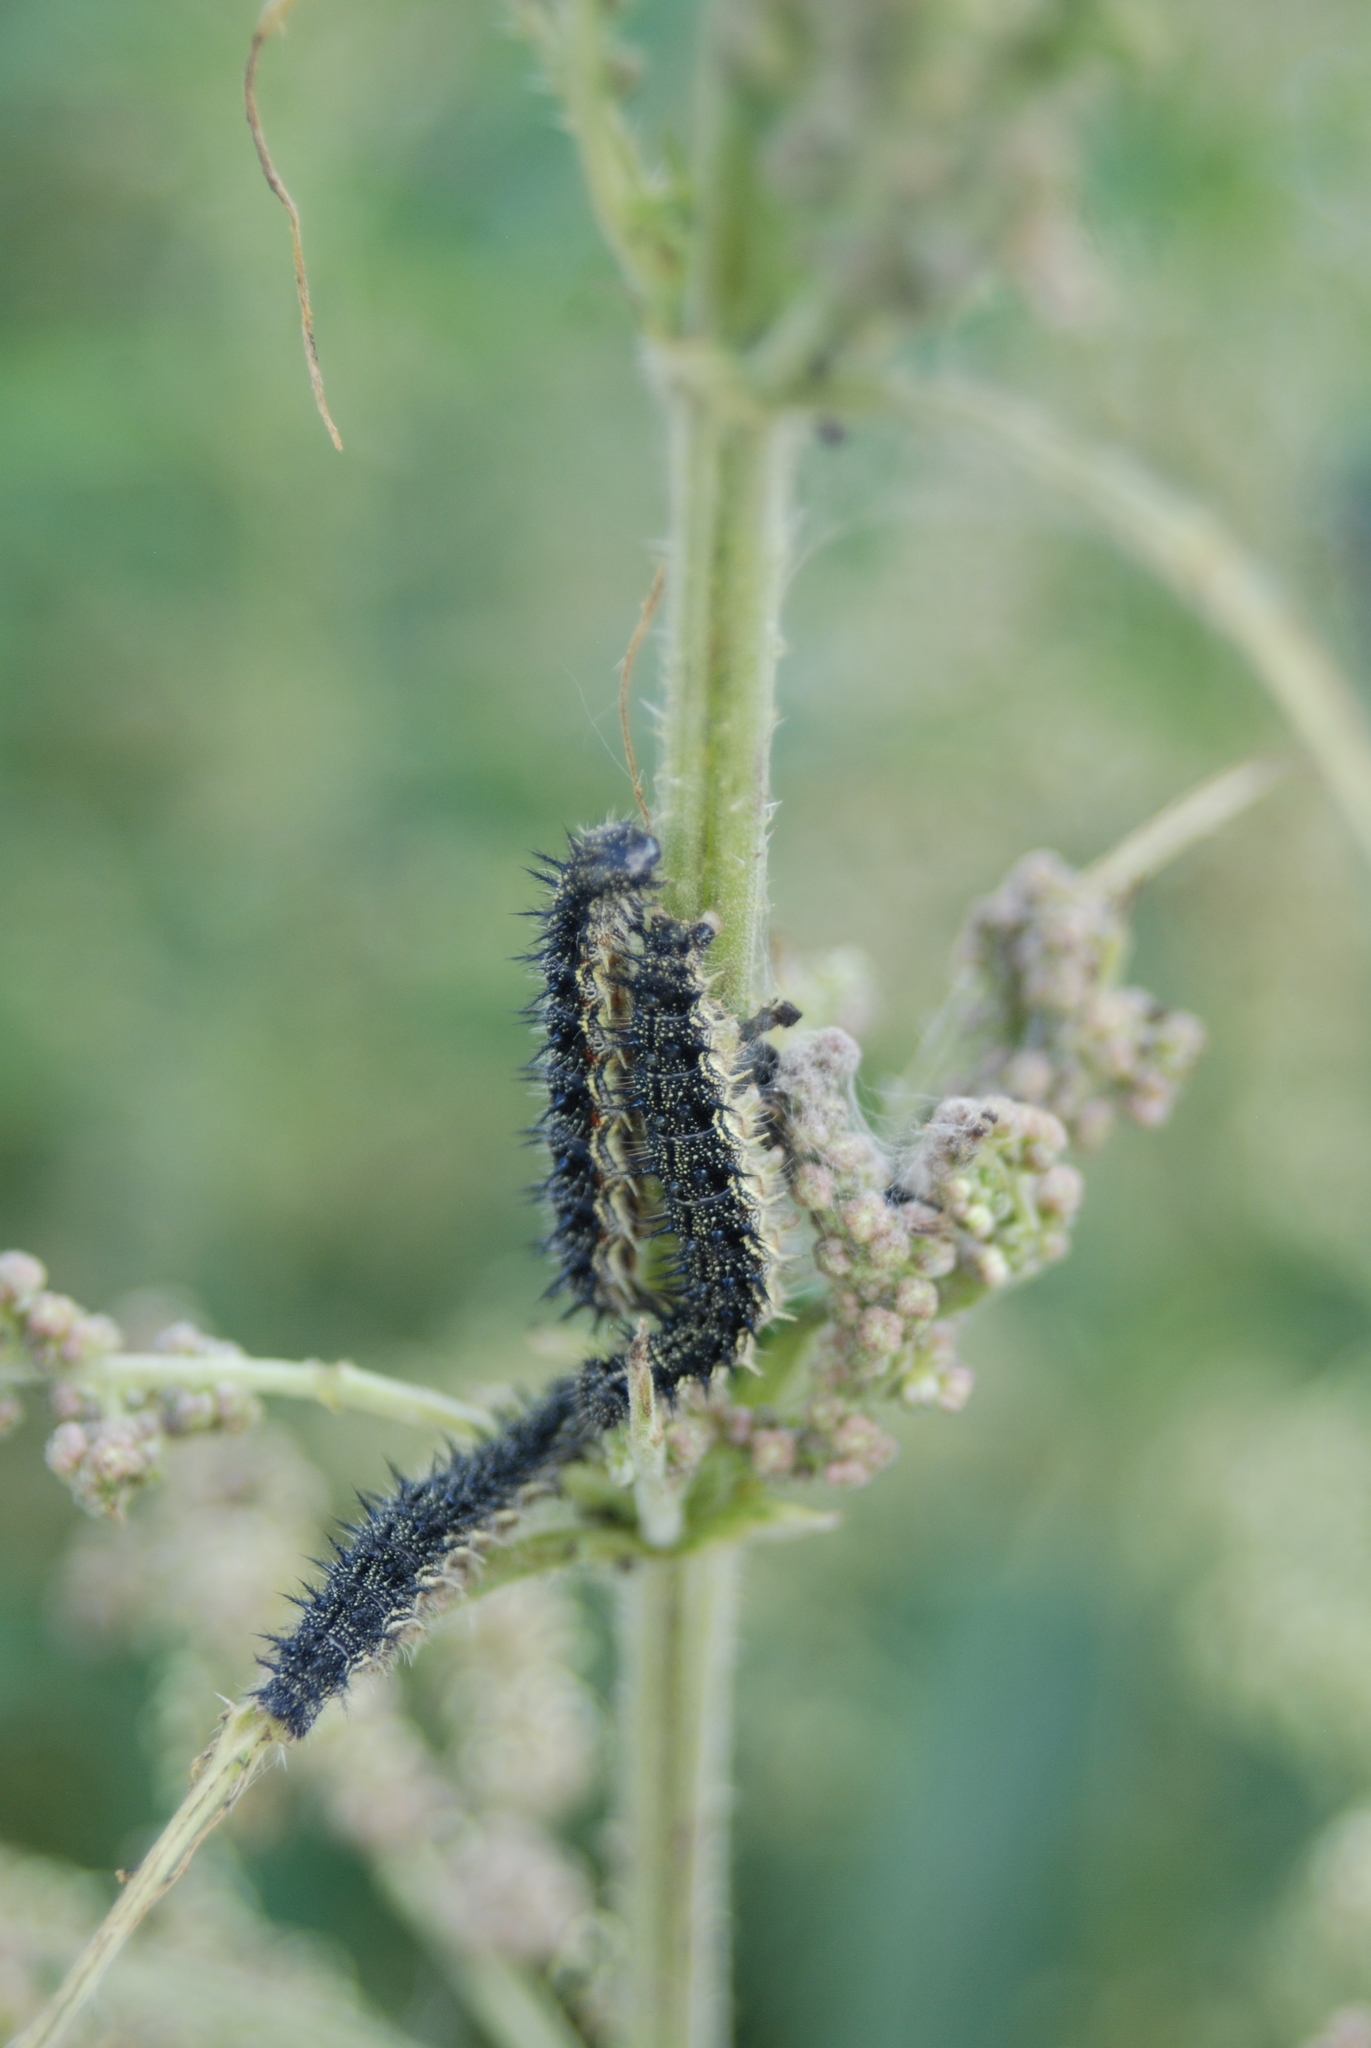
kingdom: Animalia
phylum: Arthropoda
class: Insecta
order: Lepidoptera
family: Nymphalidae
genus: Aglais
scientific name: Aglais milberti
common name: Milbert's tortoiseshell
